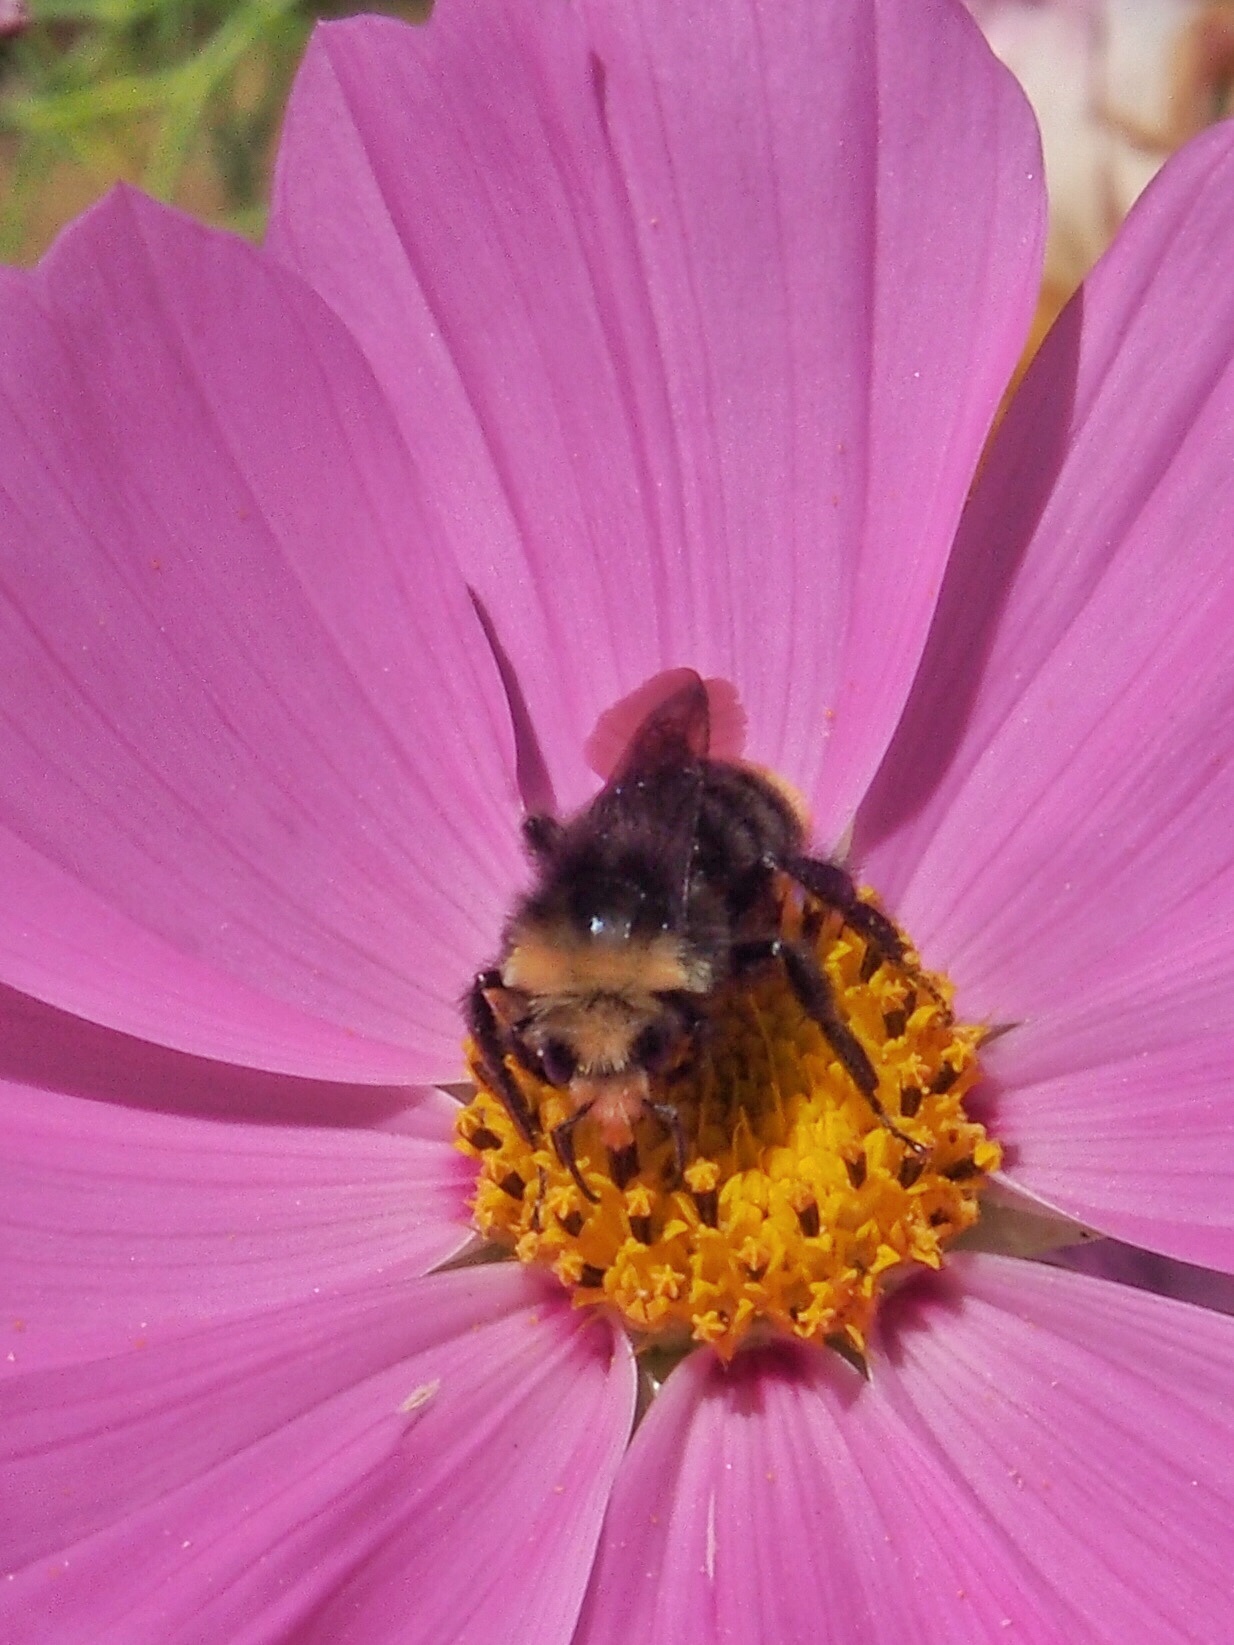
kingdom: Animalia
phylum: Arthropoda
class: Insecta
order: Hymenoptera
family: Apidae
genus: Bombus
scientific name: Bombus vosnesenskii
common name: Vosnesensky bumble bee
